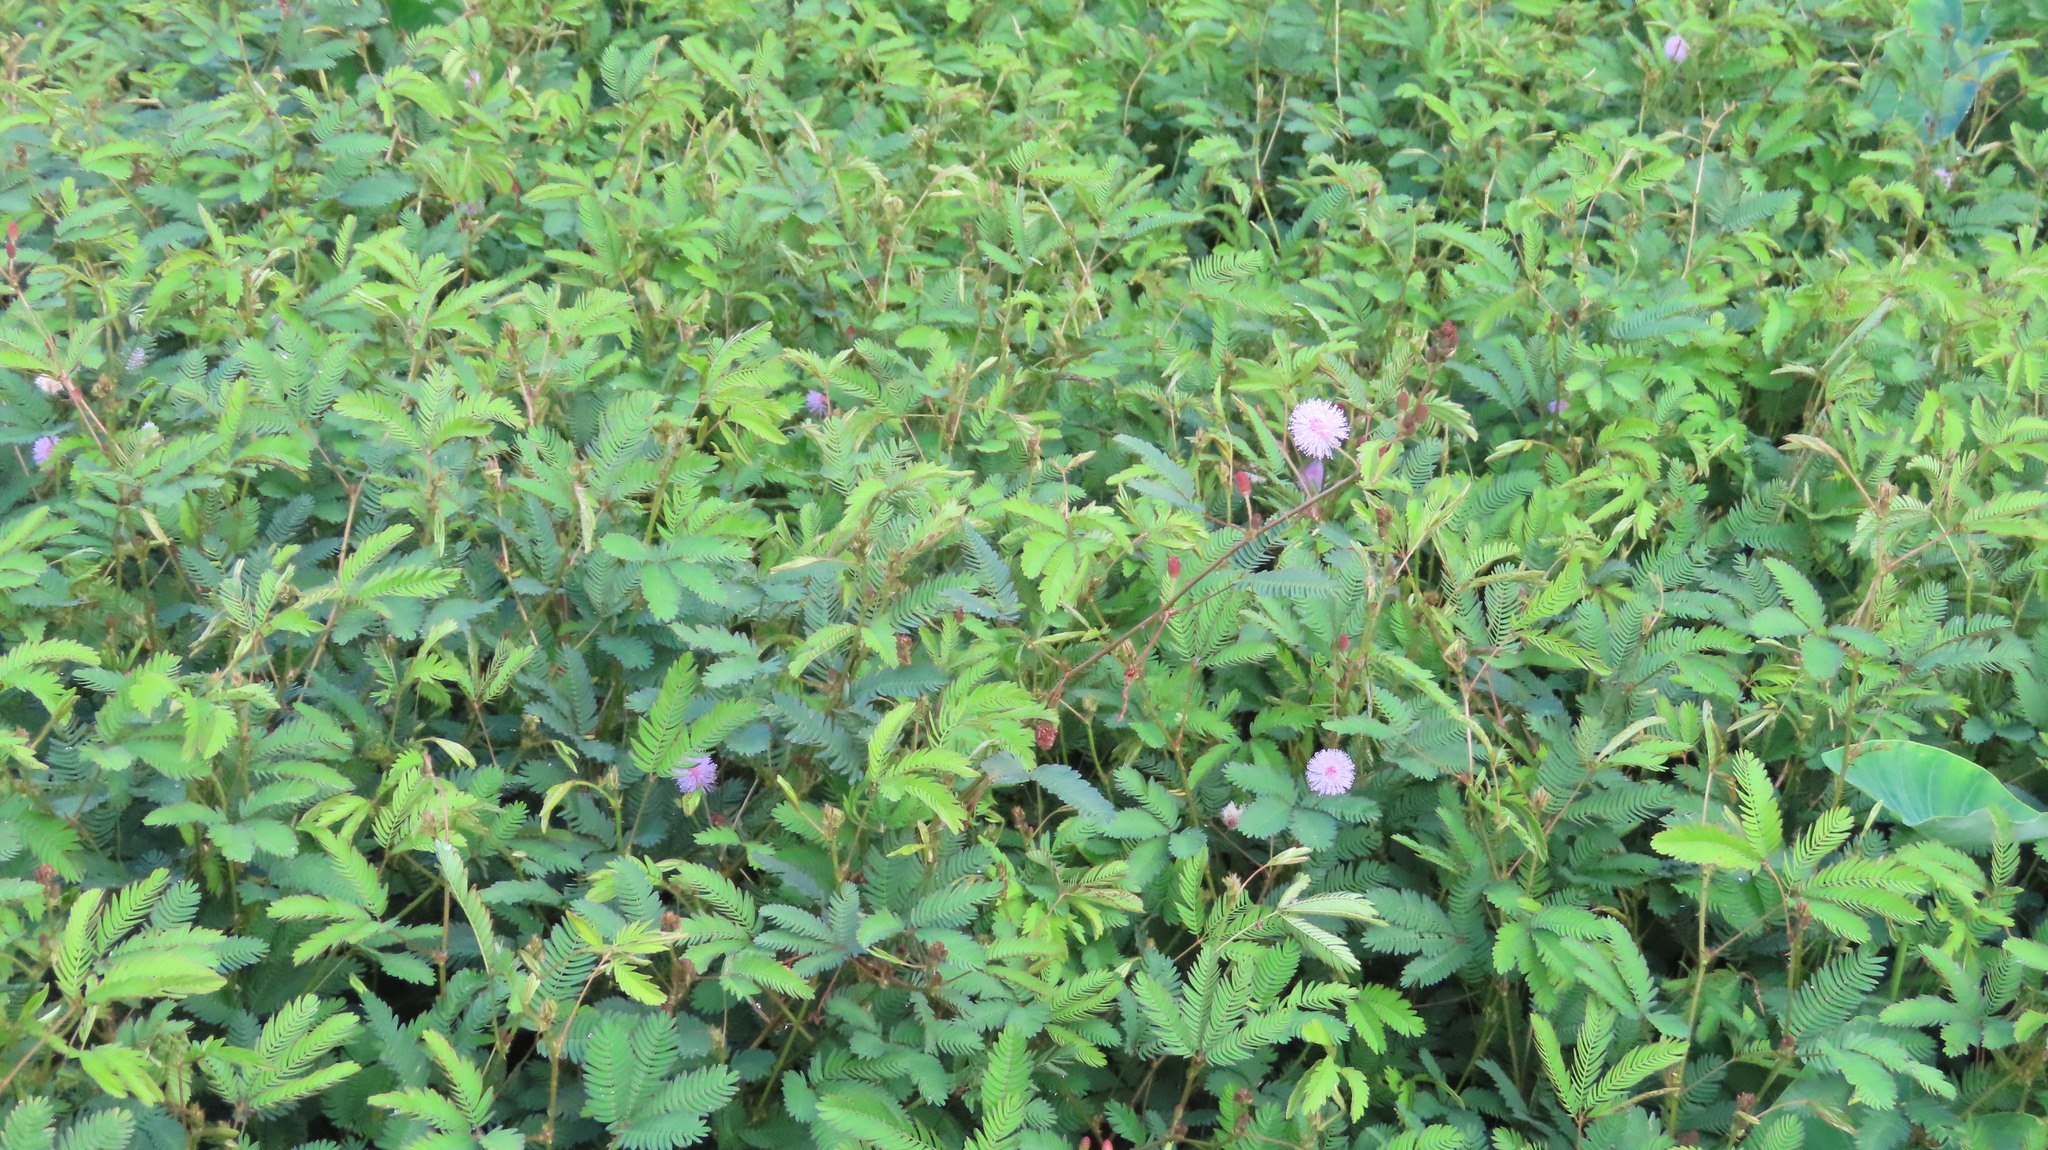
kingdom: Plantae
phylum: Tracheophyta
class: Magnoliopsida
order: Fabales
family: Fabaceae
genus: Mimosa
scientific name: Mimosa pudica
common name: Sensitive plant
